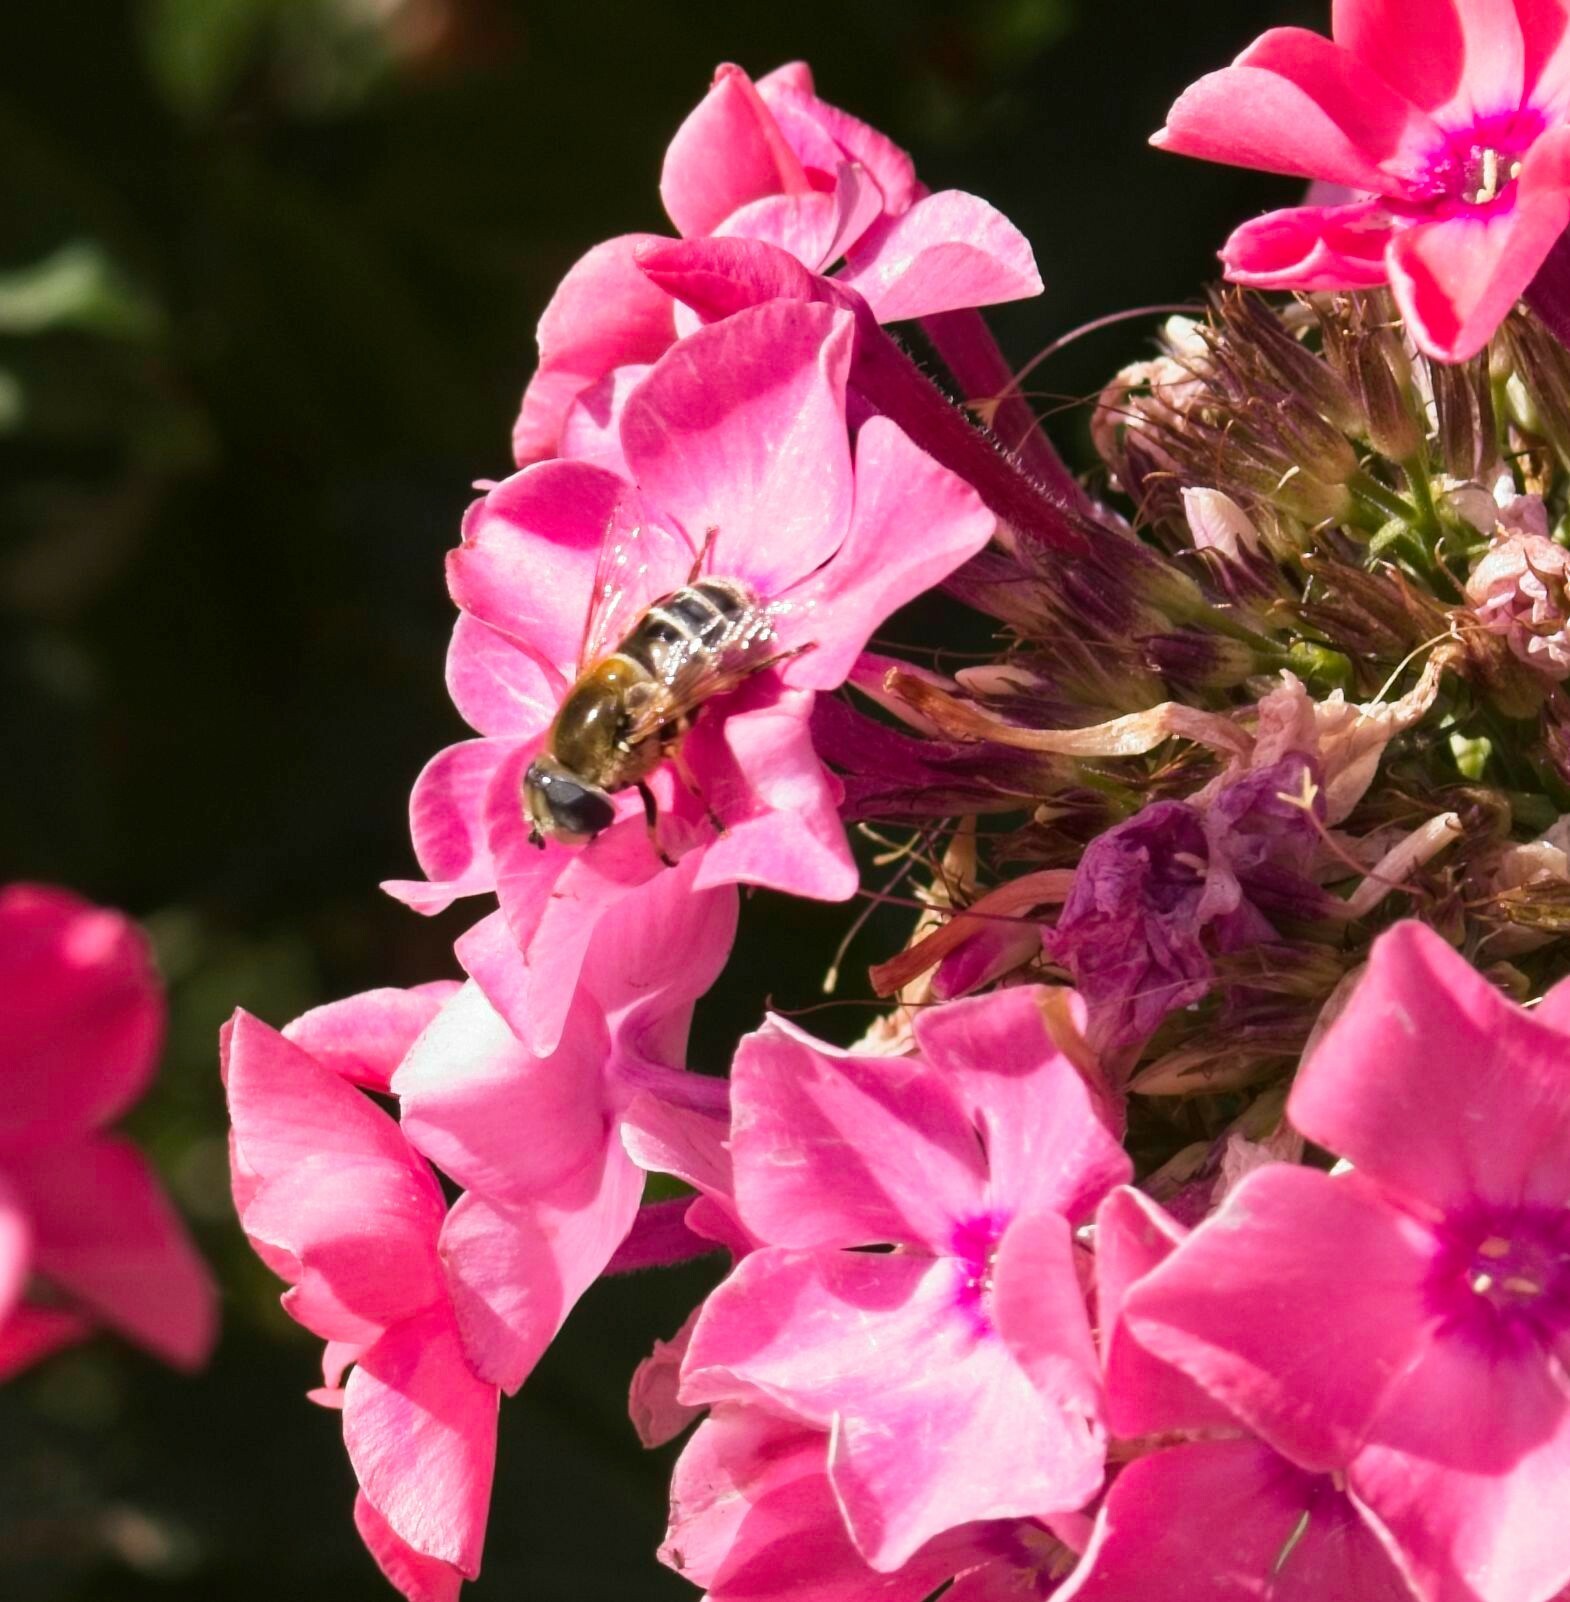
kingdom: Animalia
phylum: Arthropoda
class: Insecta
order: Diptera
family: Syrphidae
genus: Eristalis
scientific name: Eristalis stipator
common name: Yellow-shouldered drone fly
